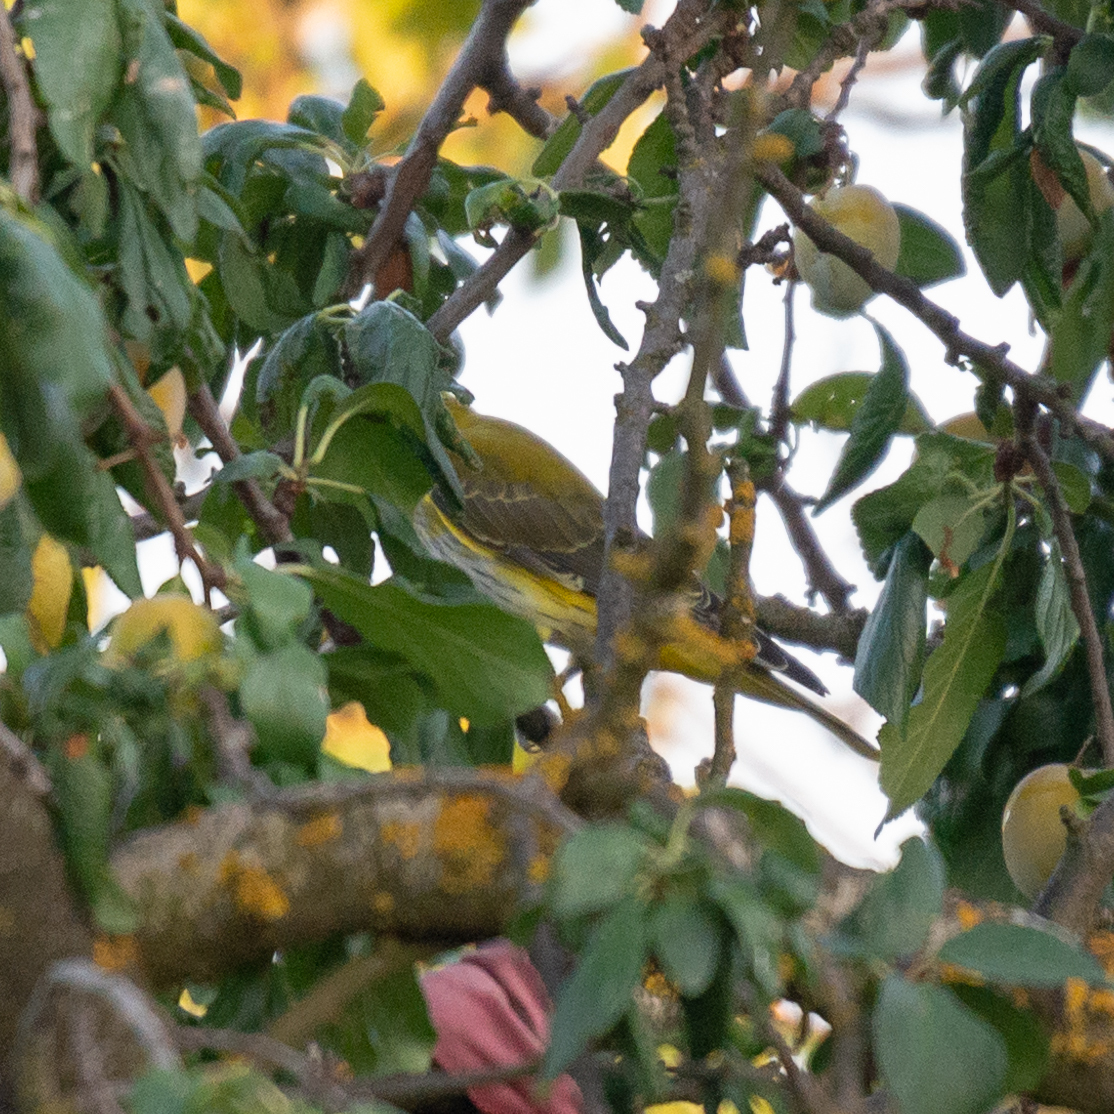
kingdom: Animalia
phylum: Chordata
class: Aves
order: Passeriformes
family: Oriolidae
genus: Oriolus
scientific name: Oriolus oriolus
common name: Eurasian golden oriole
